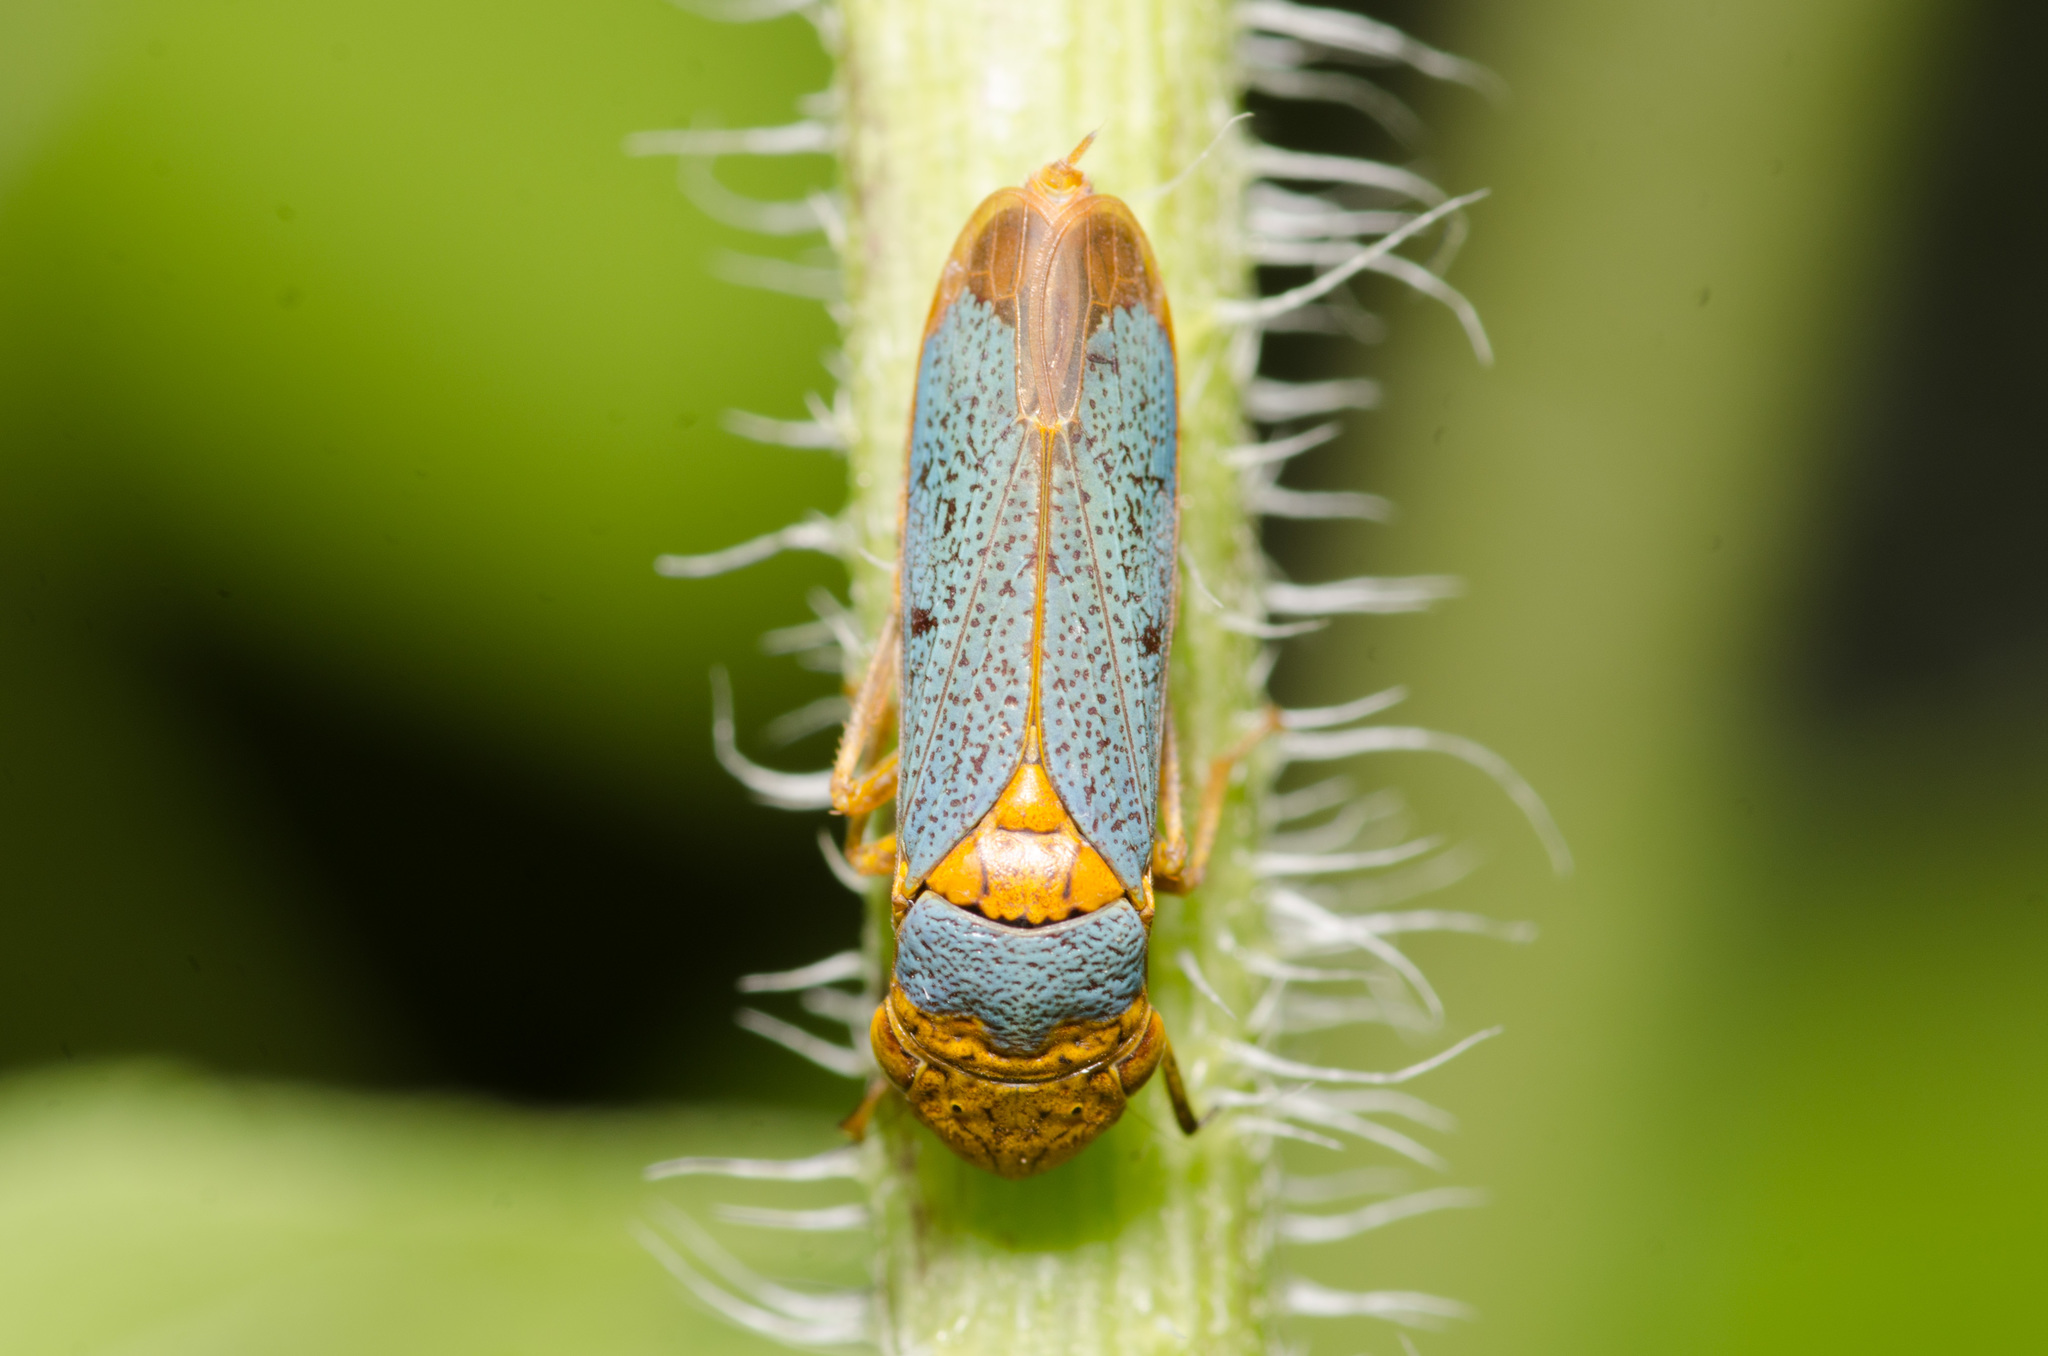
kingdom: Animalia
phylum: Arthropoda
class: Insecta
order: Hemiptera
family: Cicadellidae
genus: Oncometopia
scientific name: Oncometopia hamiltoni
